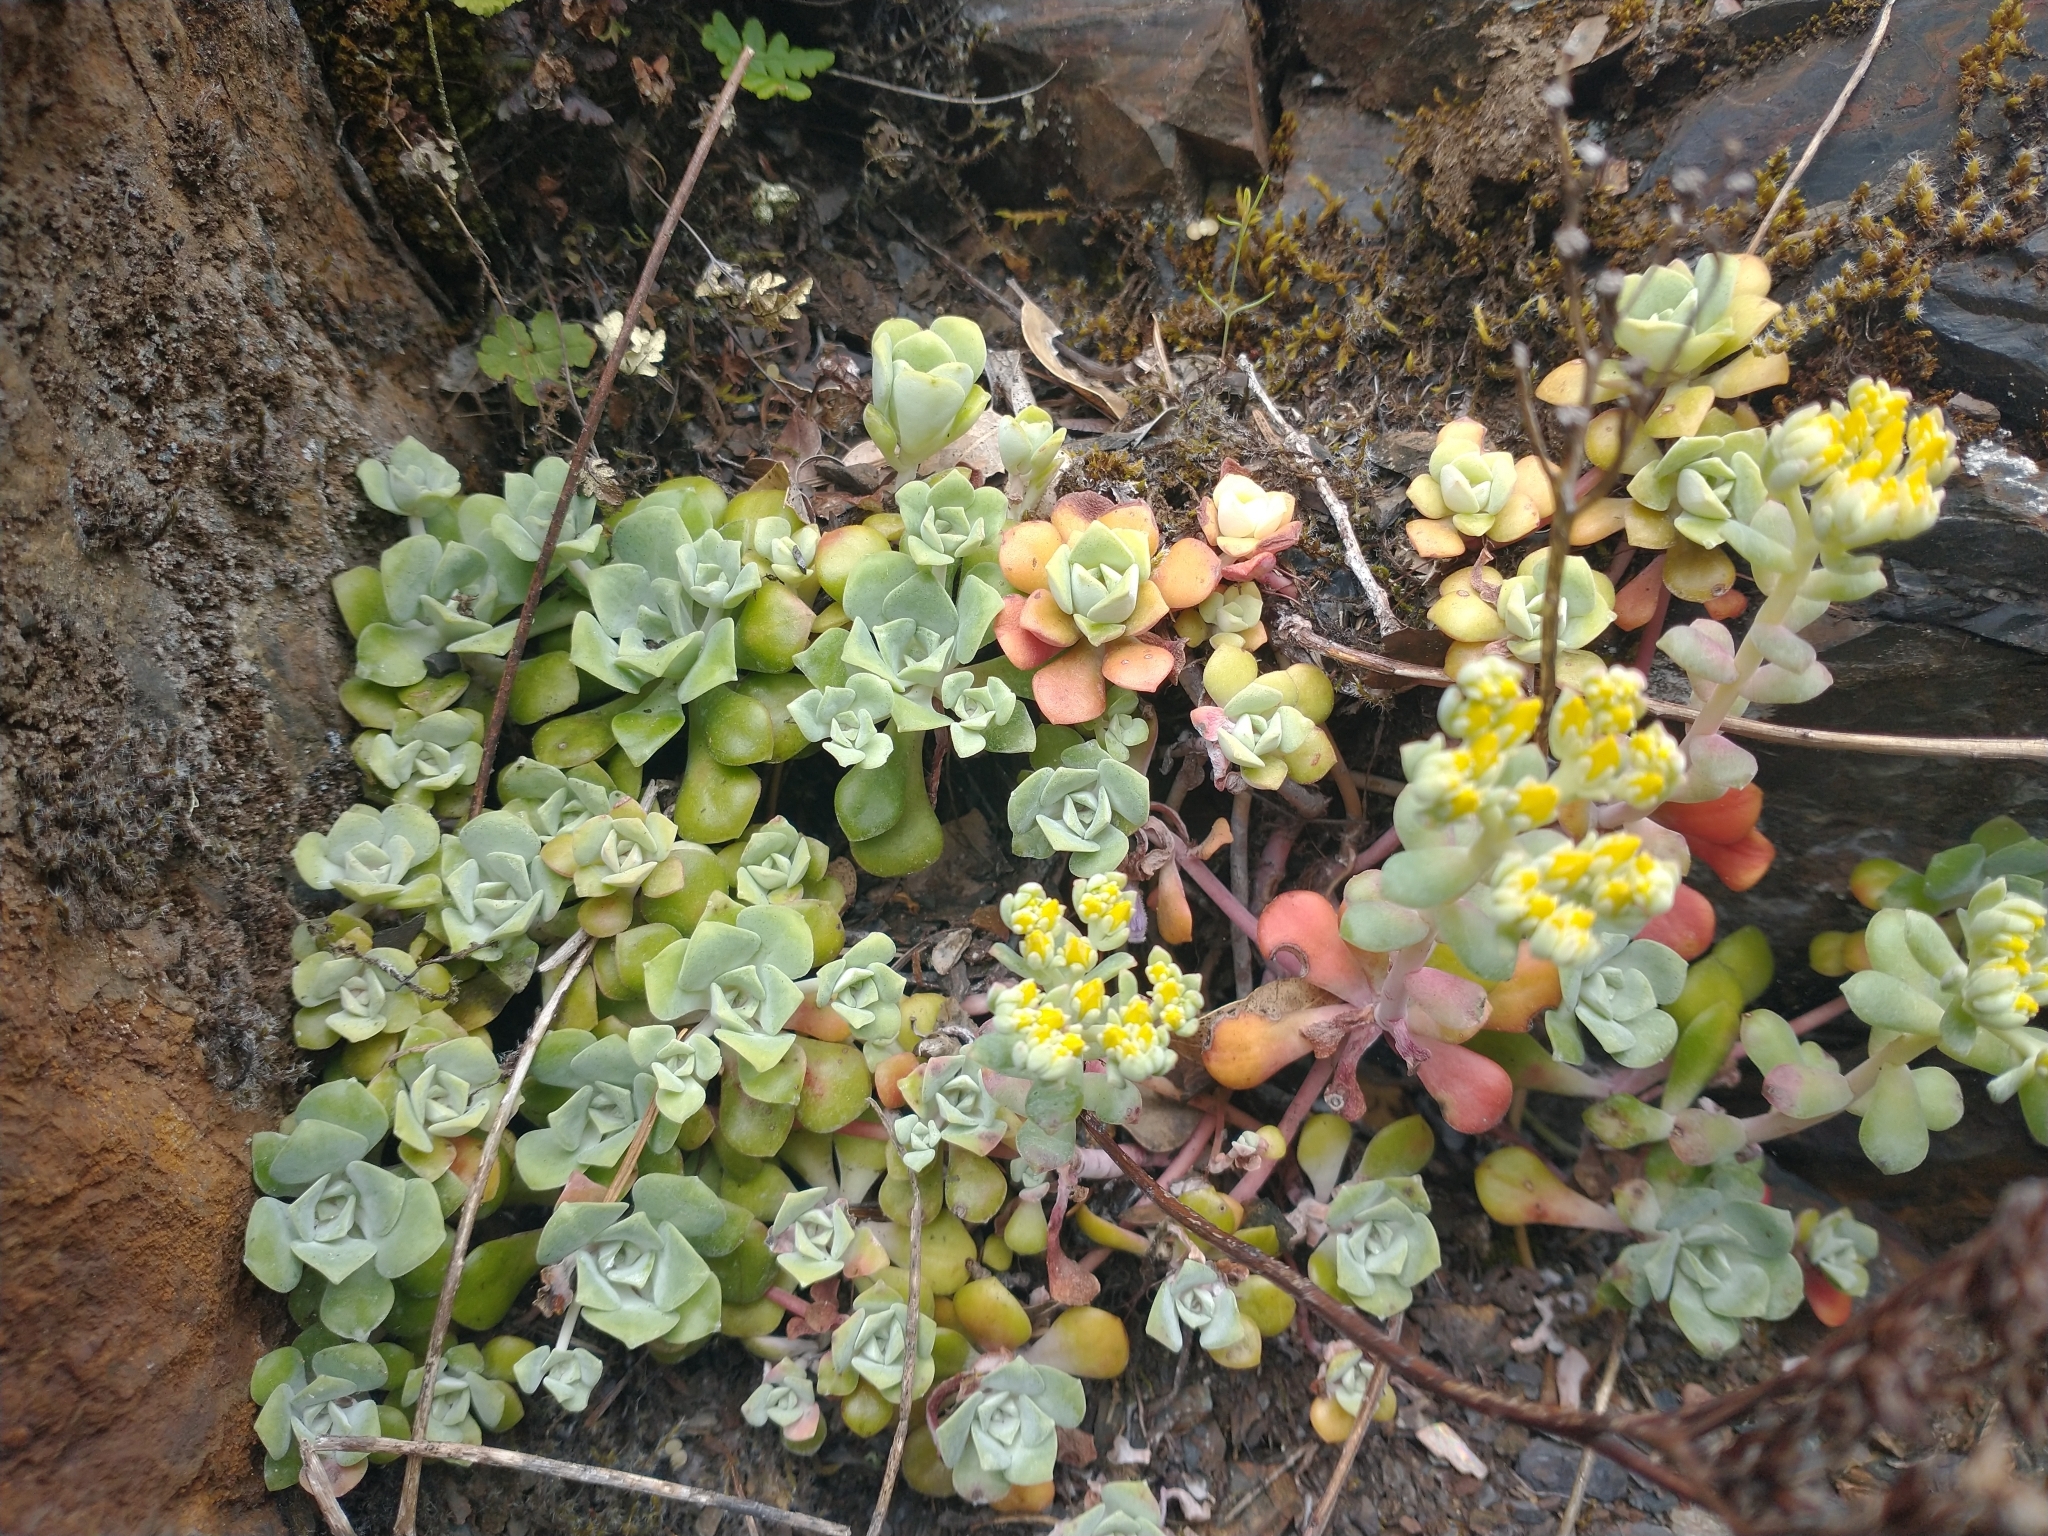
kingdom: Plantae
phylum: Tracheophyta
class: Magnoliopsida
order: Saxifragales
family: Crassulaceae
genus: Sedum
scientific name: Sedum spathulifolium
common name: Colorado stonecrop
